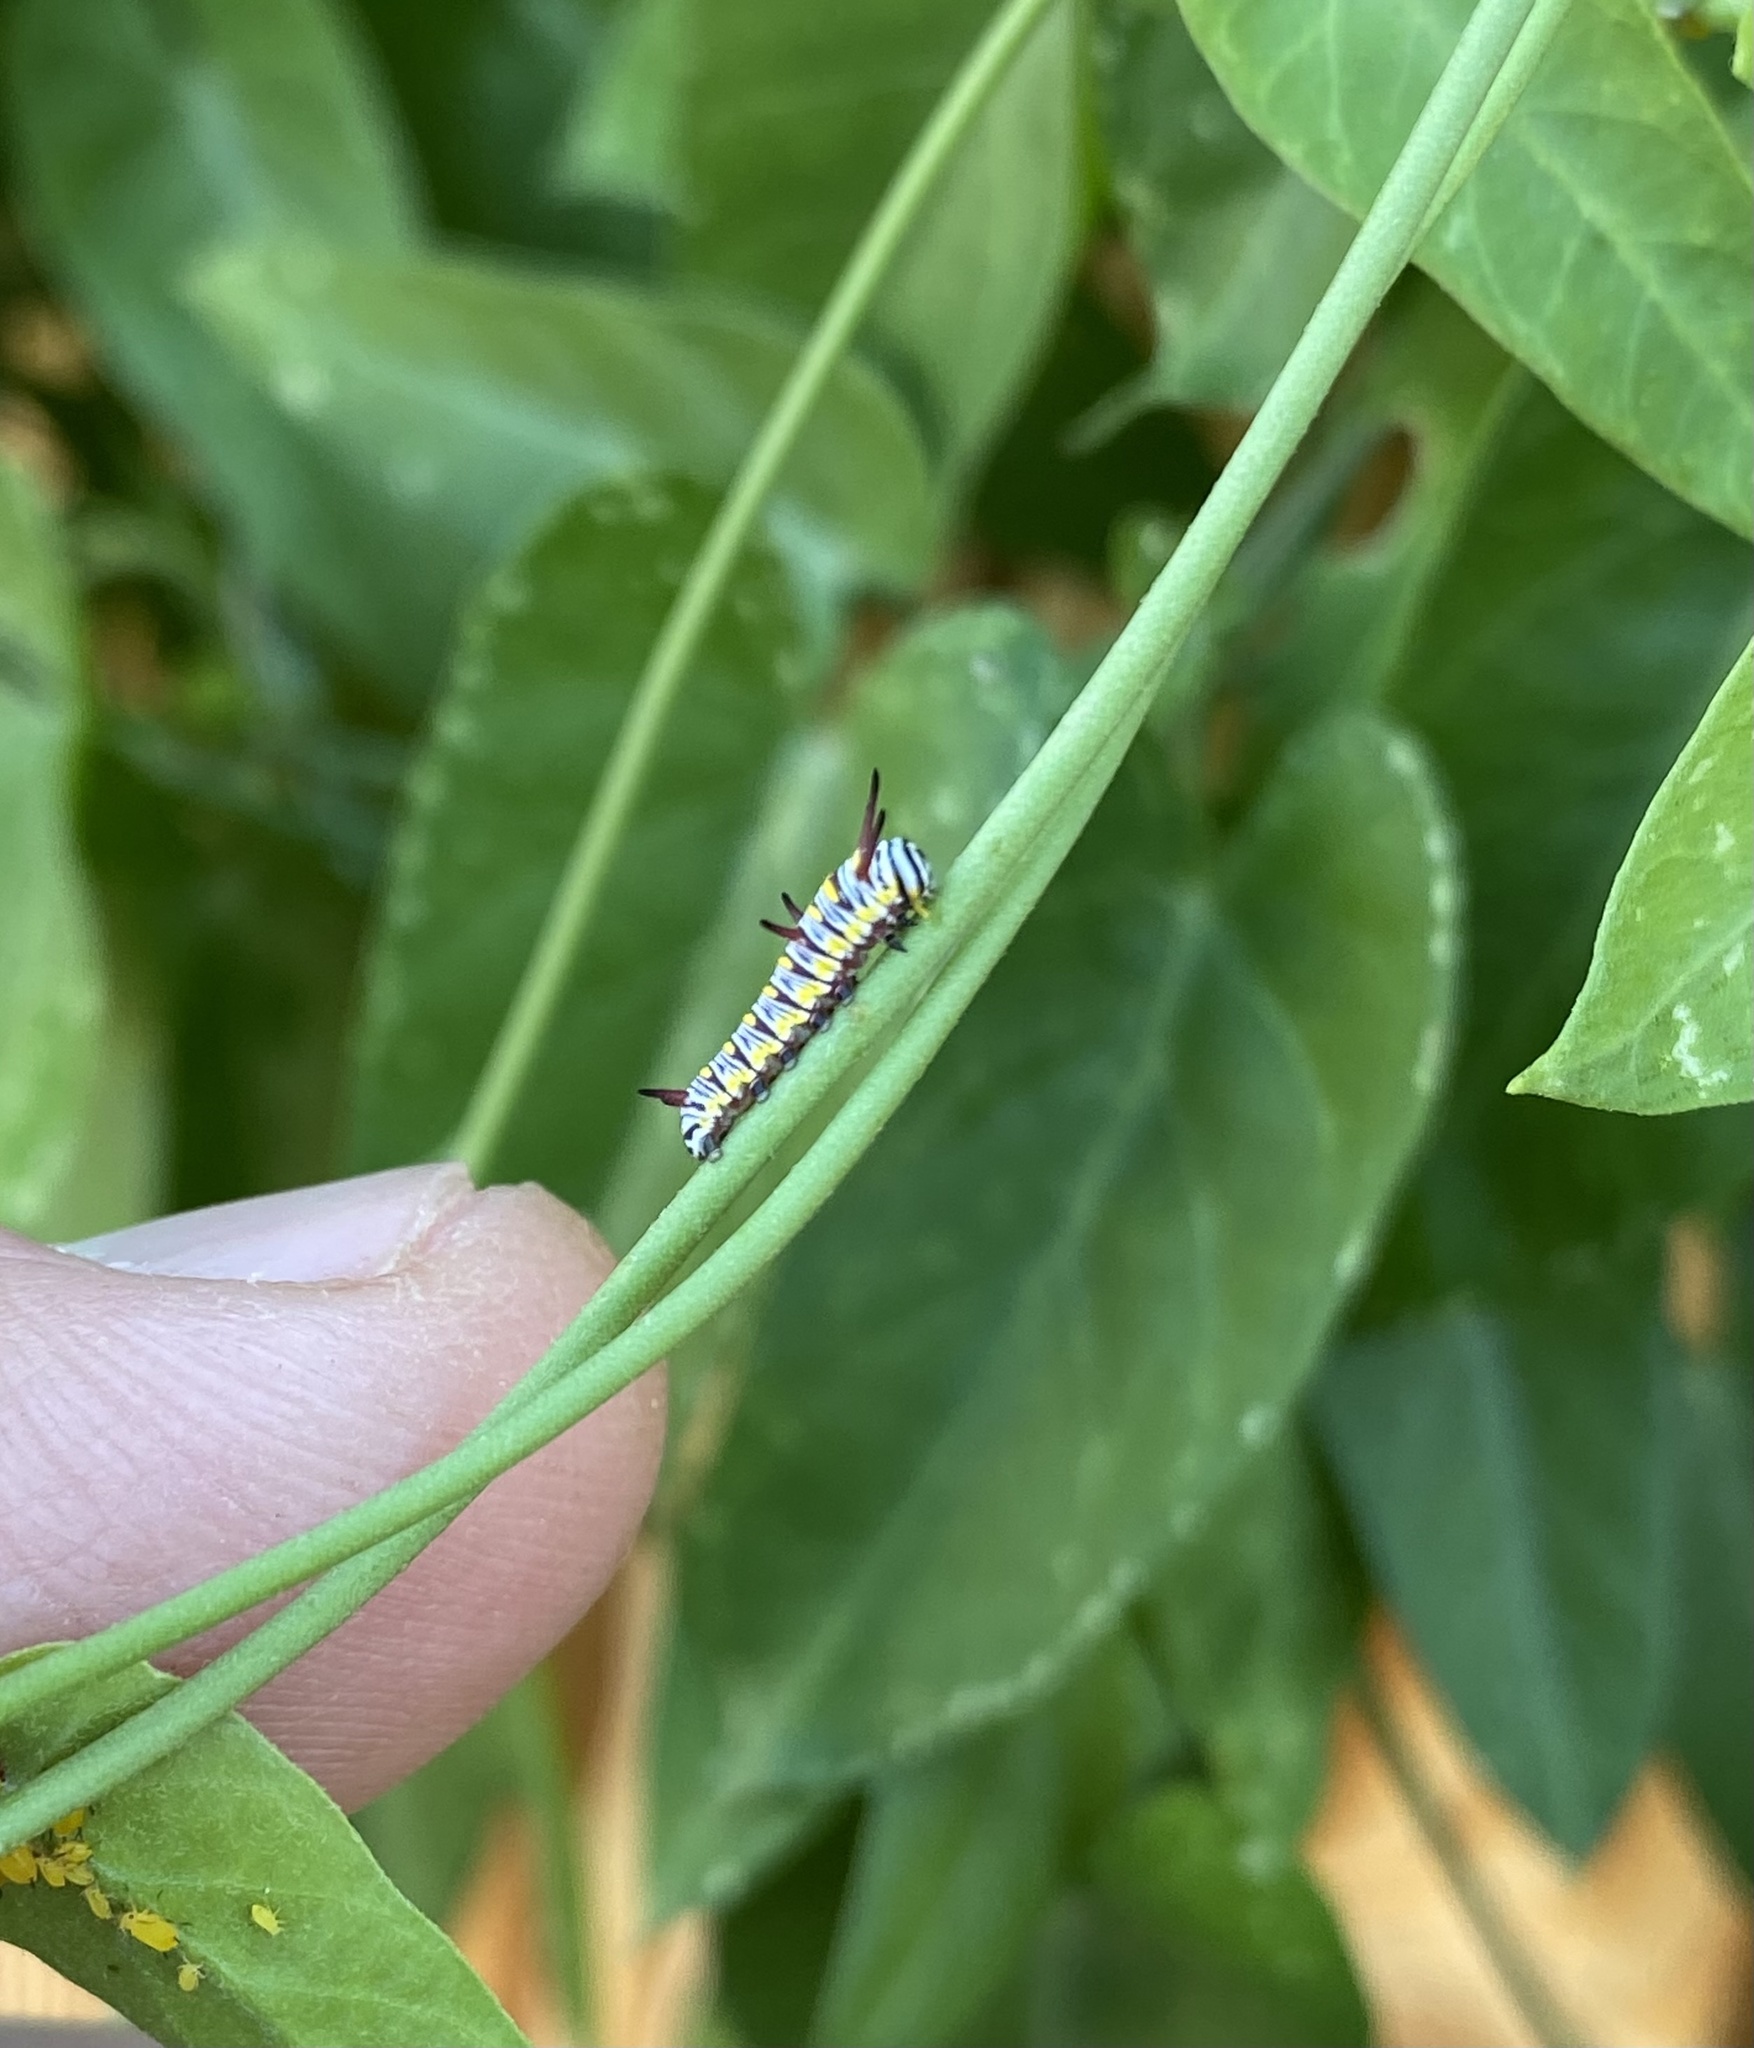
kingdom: Animalia
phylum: Arthropoda
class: Insecta
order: Lepidoptera
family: Nymphalidae
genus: Danaus
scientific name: Danaus gilippus
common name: Queen
